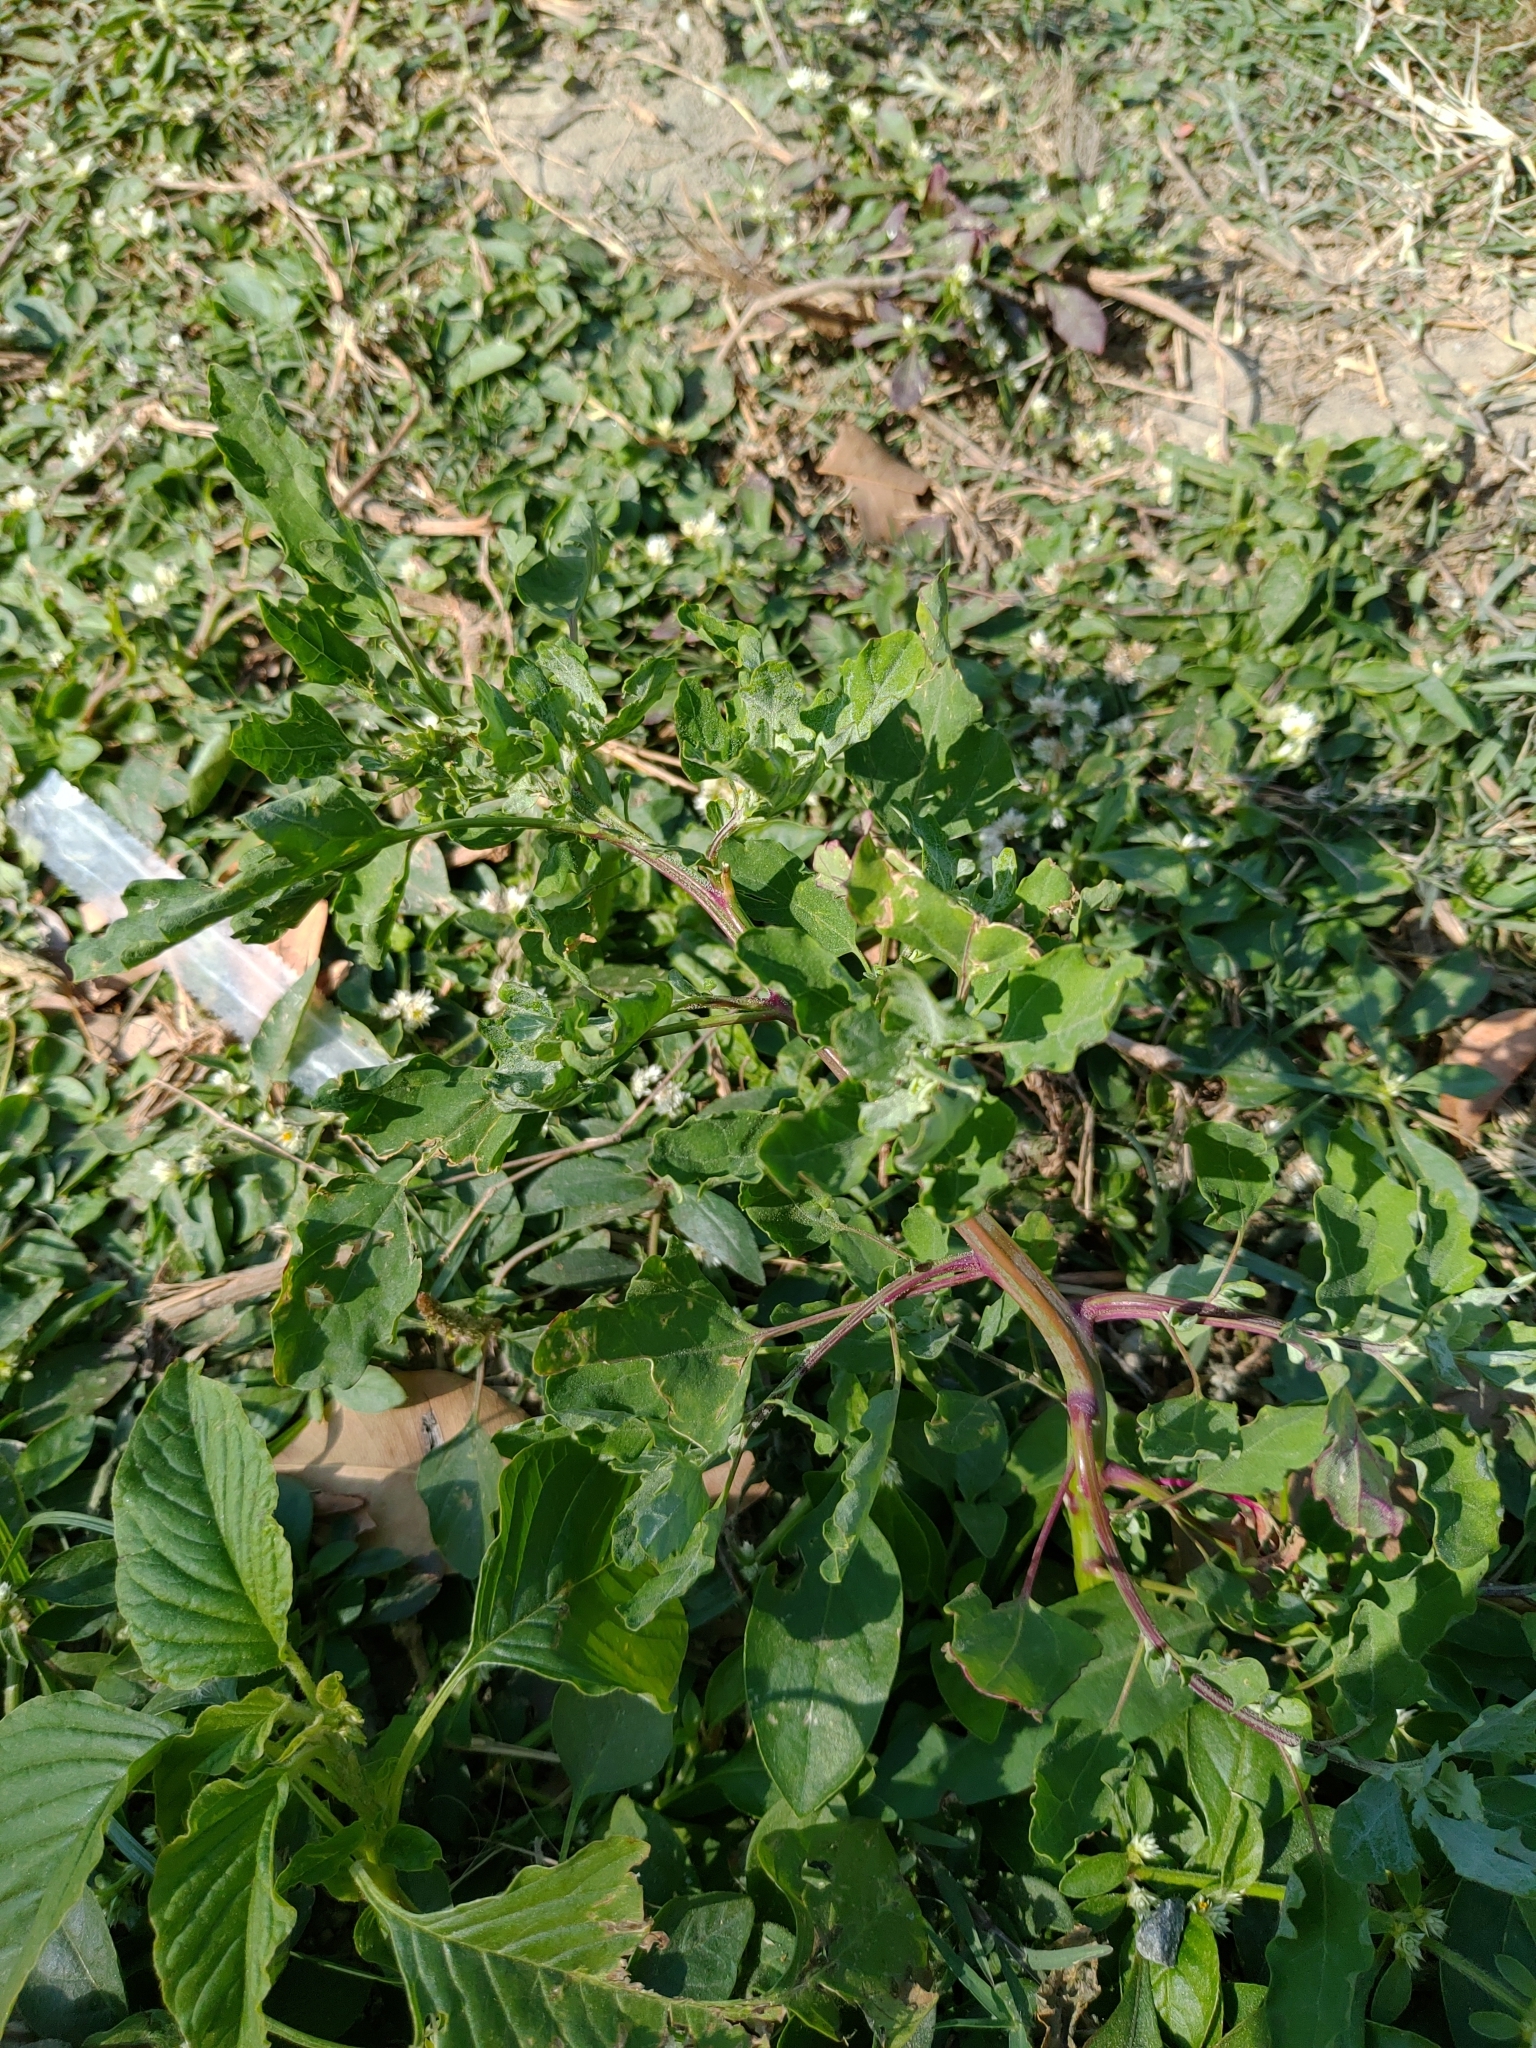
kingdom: Plantae
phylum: Tracheophyta
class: Magnoliopsida
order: Caryophyllales
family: Amaranthaceae
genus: Chenopodium
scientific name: Chenopodium ficifolium
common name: Fig-leaved goosefoot
